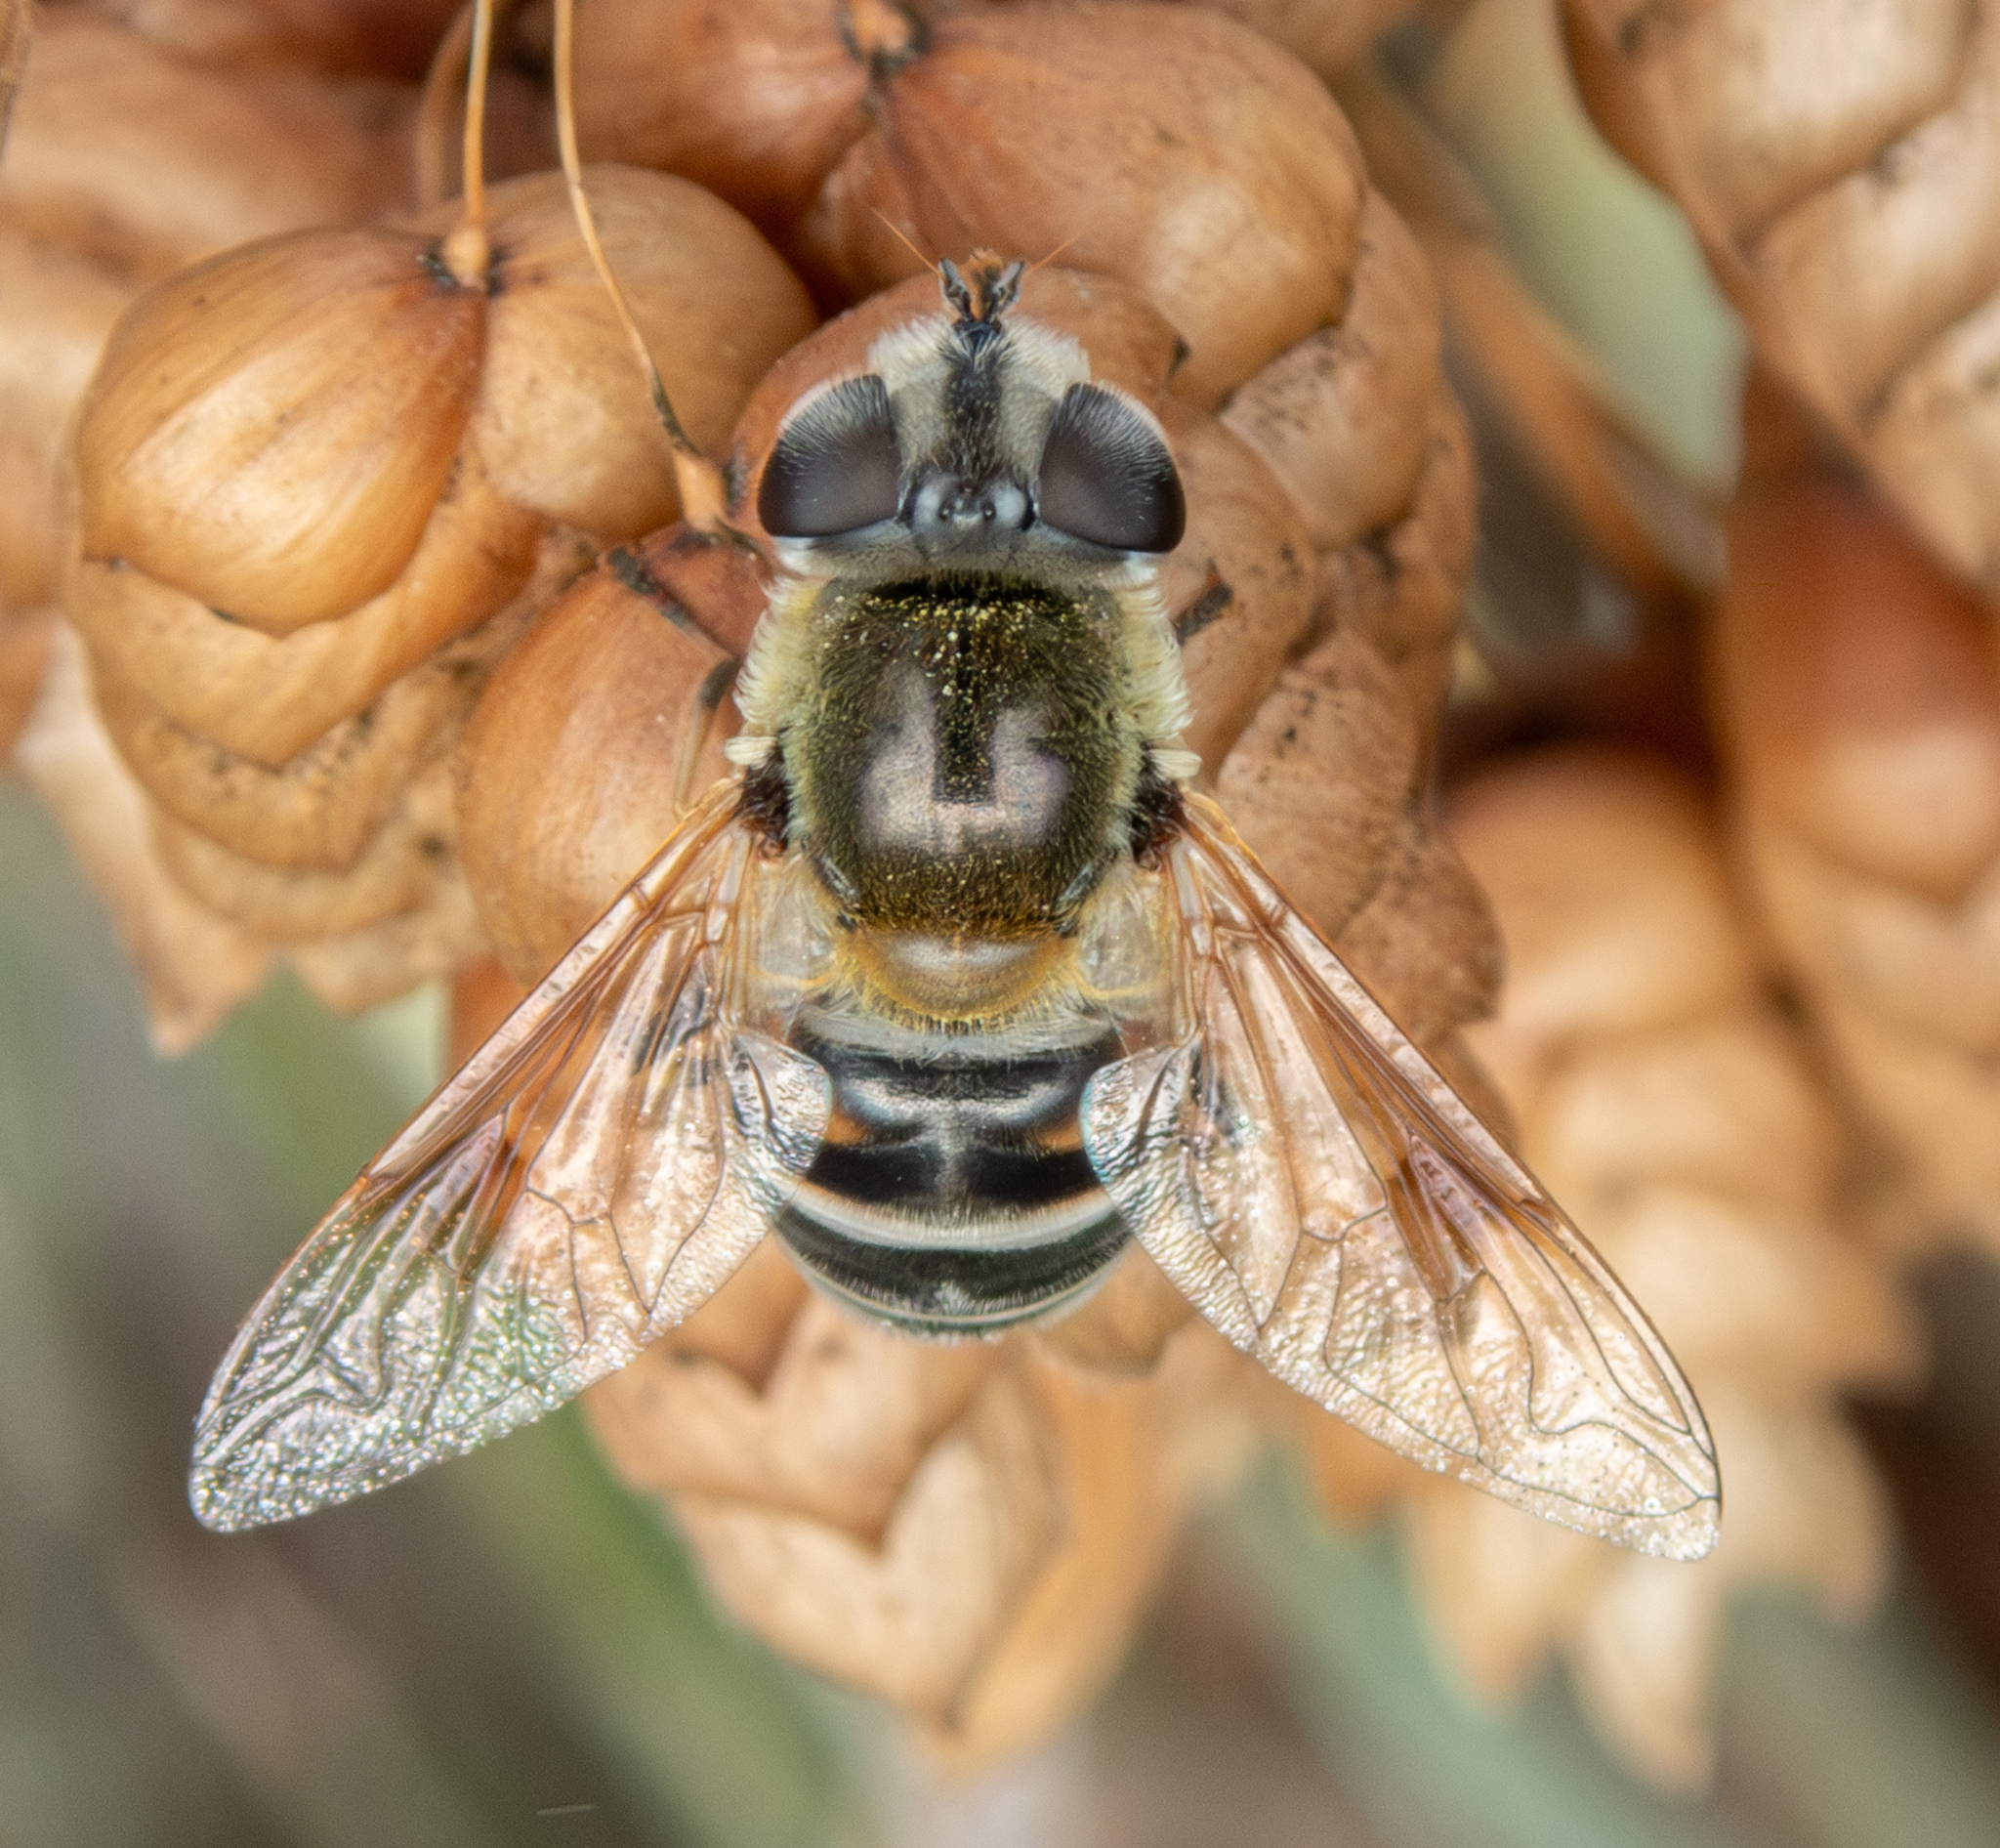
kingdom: Animalia
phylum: Arthropoda
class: Insecta
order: Diptera
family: Syrphidae
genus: Eristalis
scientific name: Eristalis stipator
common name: Yellow-shouldered drone fly
